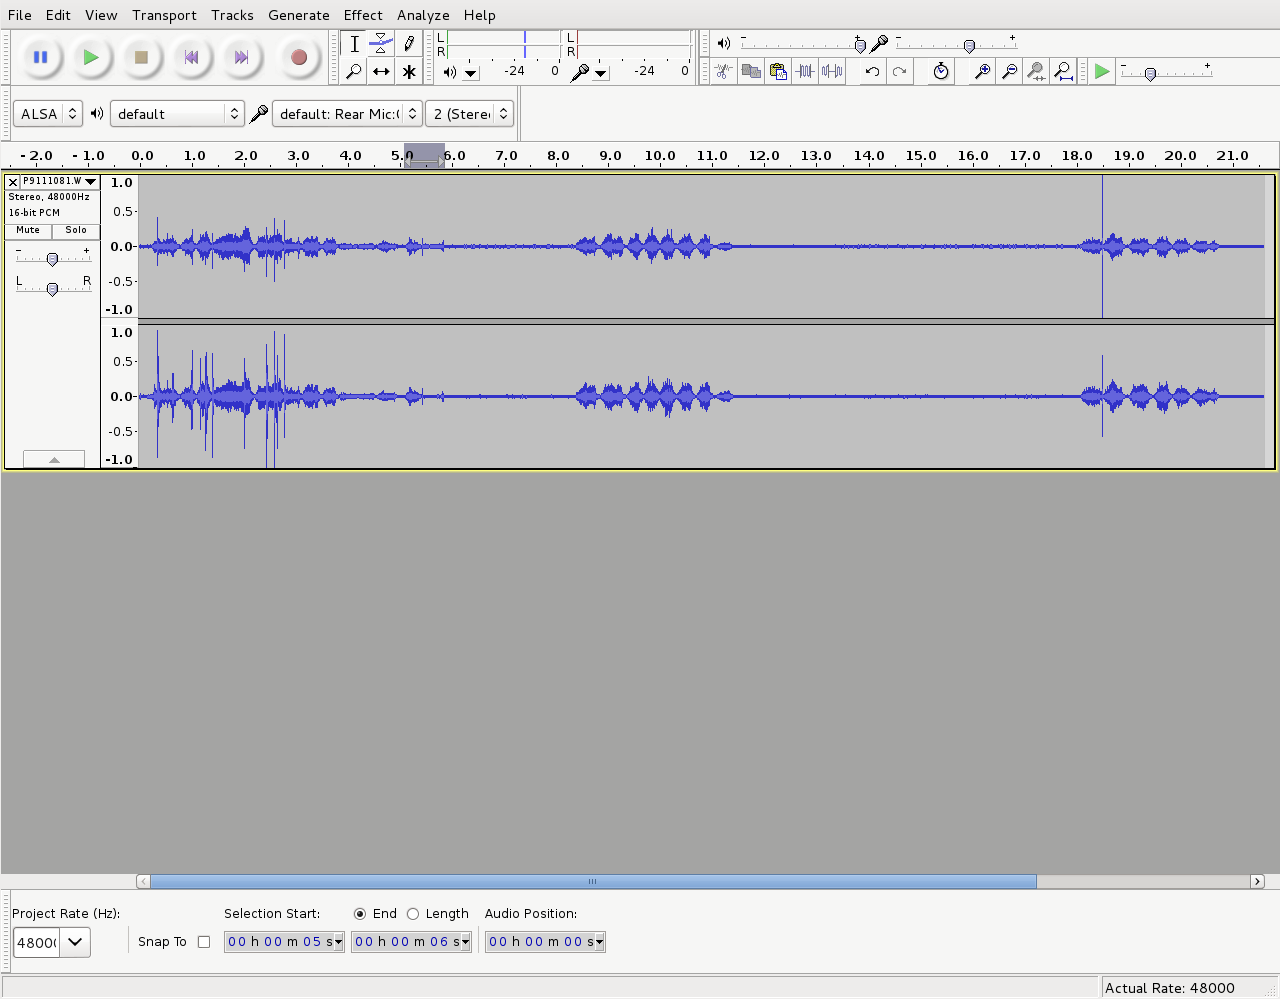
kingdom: Animalia
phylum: Chordata
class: Aves
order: Passeriformes
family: Meliphagidae
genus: Prosthemadera
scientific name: Prosthemadera novaeseelandiae
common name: Tui
